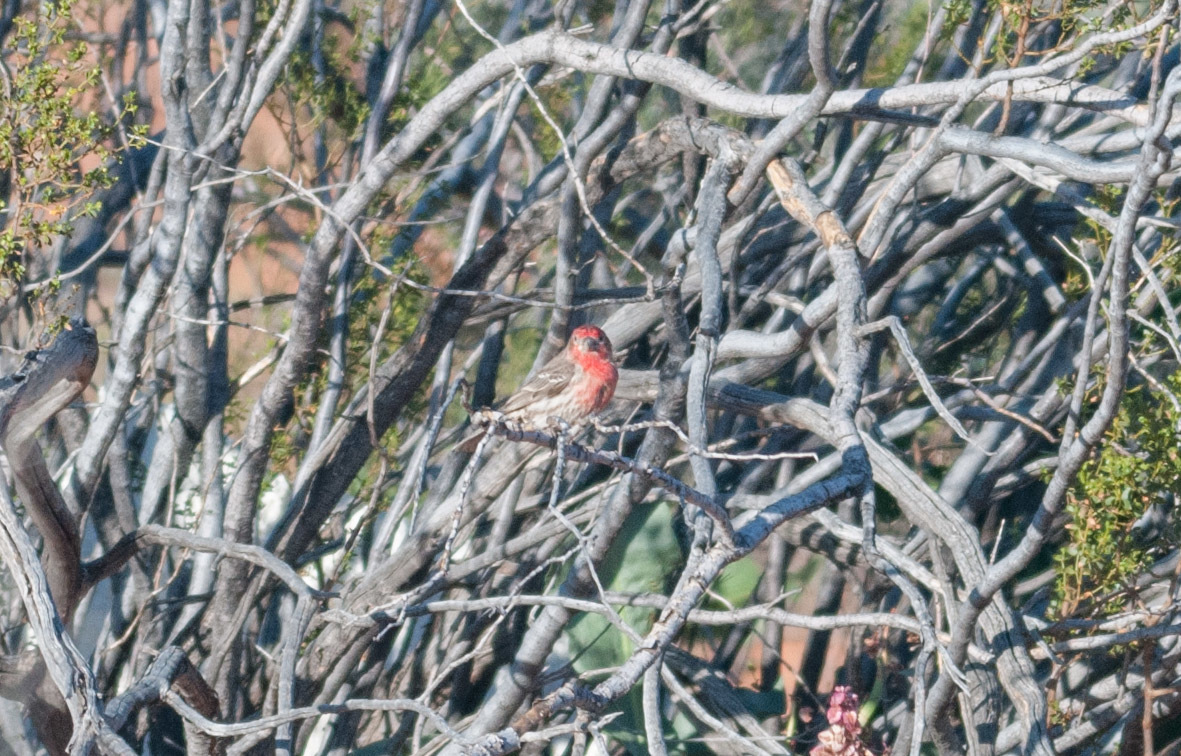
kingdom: Animalia
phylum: Chordata
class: Aves
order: Passeriformes
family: Fringillidae
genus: Haemorhous
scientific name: Haemorhous mexicanus
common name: House finch
